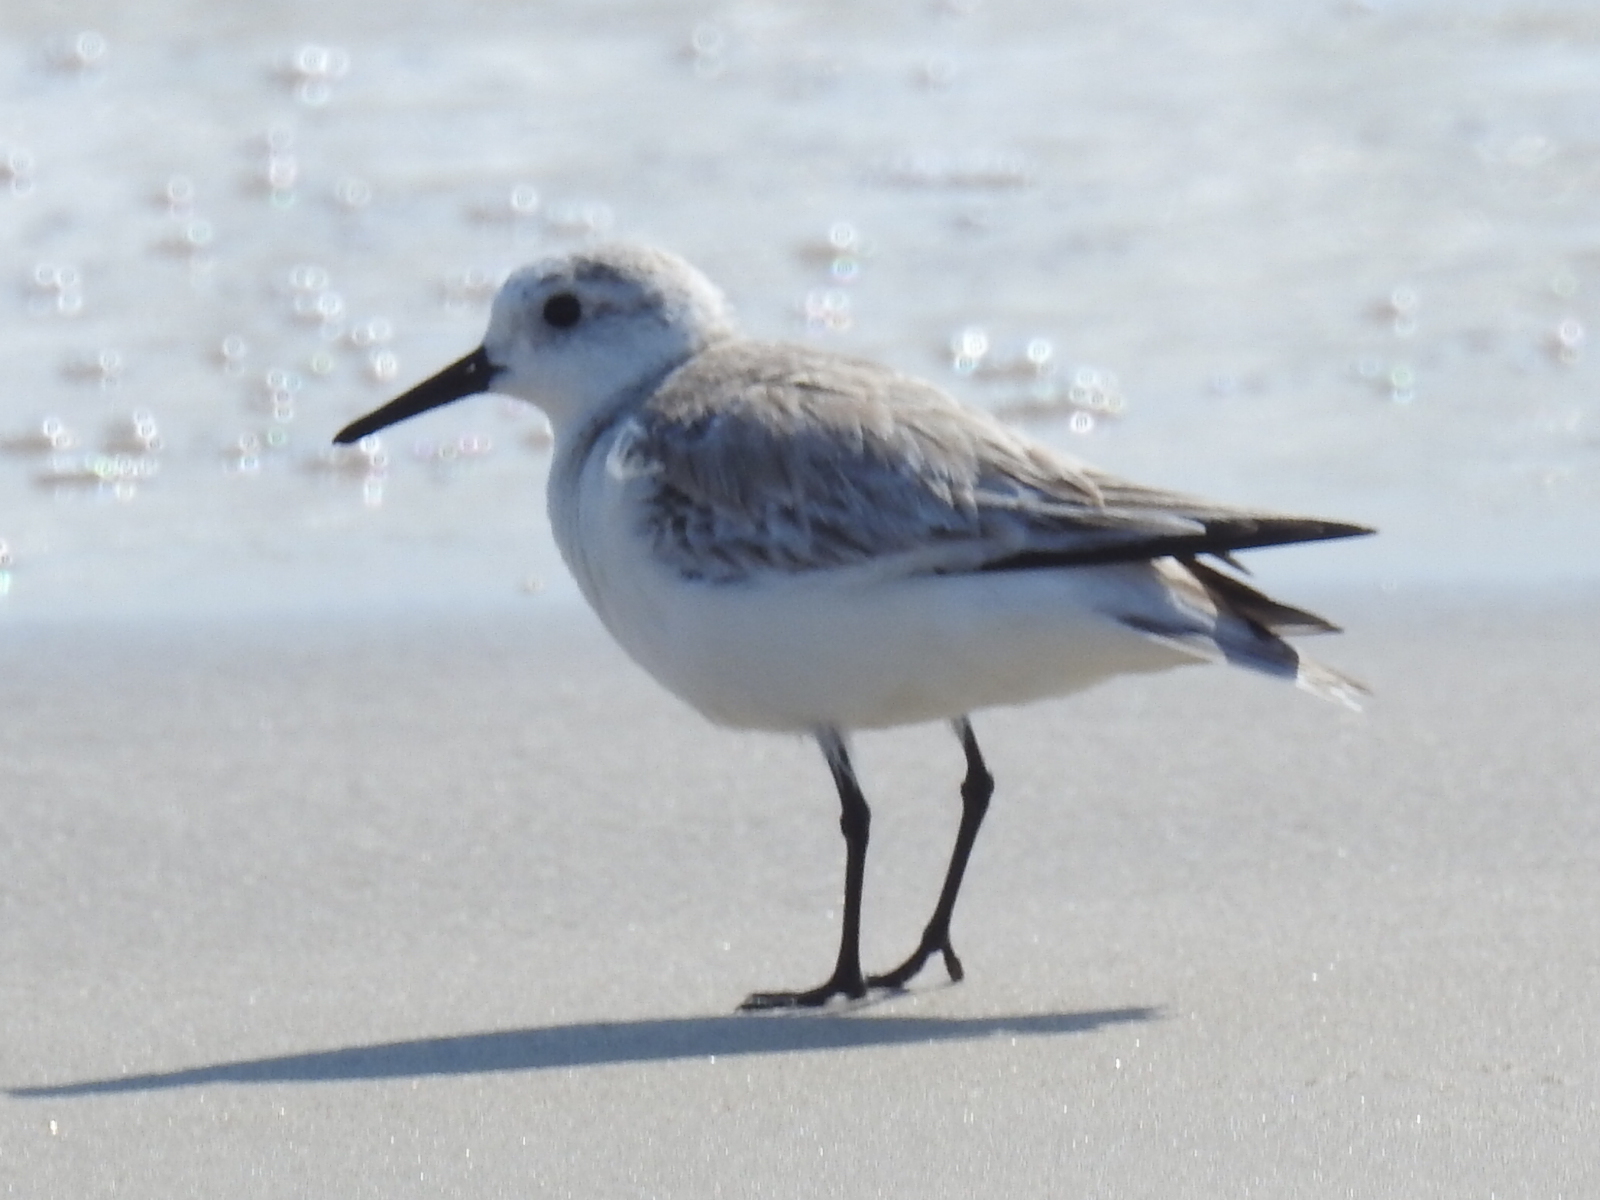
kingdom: Animalia
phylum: Chordata
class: Aves
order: Charadriiformes
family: Scolopacidae
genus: Calidris
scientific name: Calidris alba
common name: Sanderling
